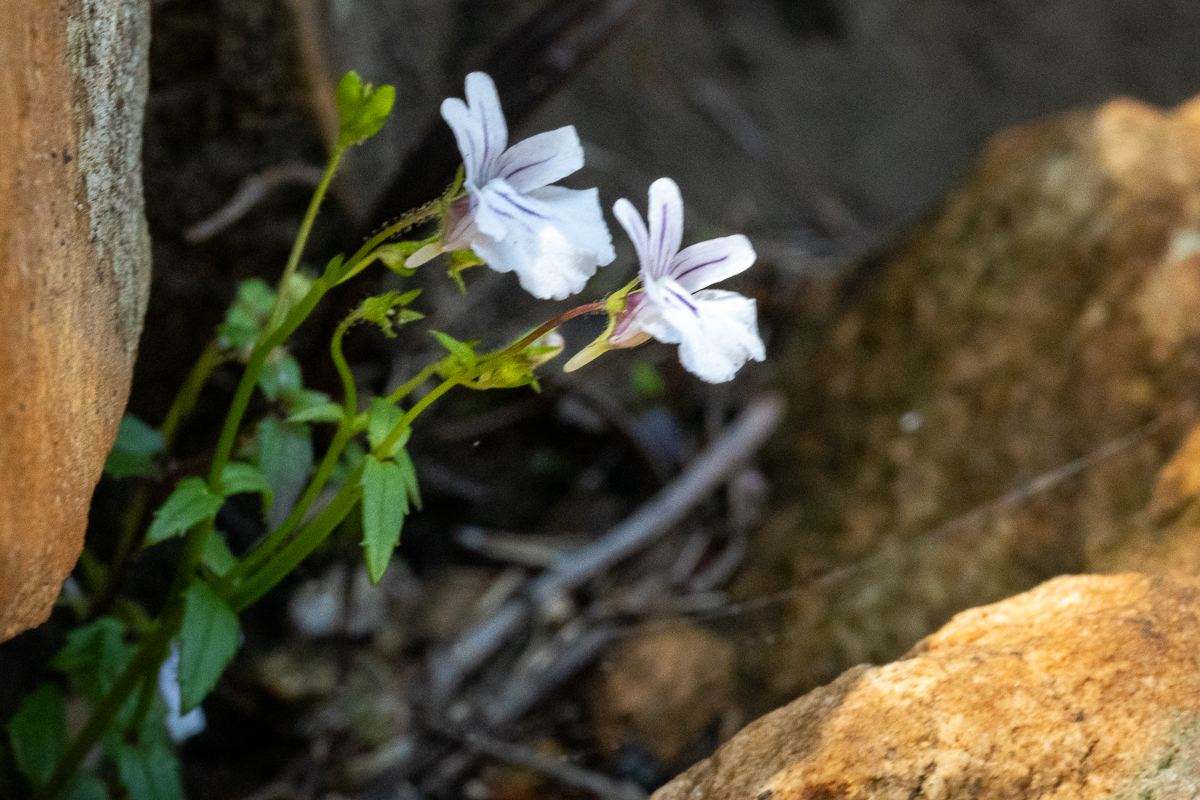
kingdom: Plantae
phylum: Tracheophyta
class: Magnoliopsida
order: Lamiales
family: Scrophulariaceae
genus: Nemesia
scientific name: Nemesia diffusa
